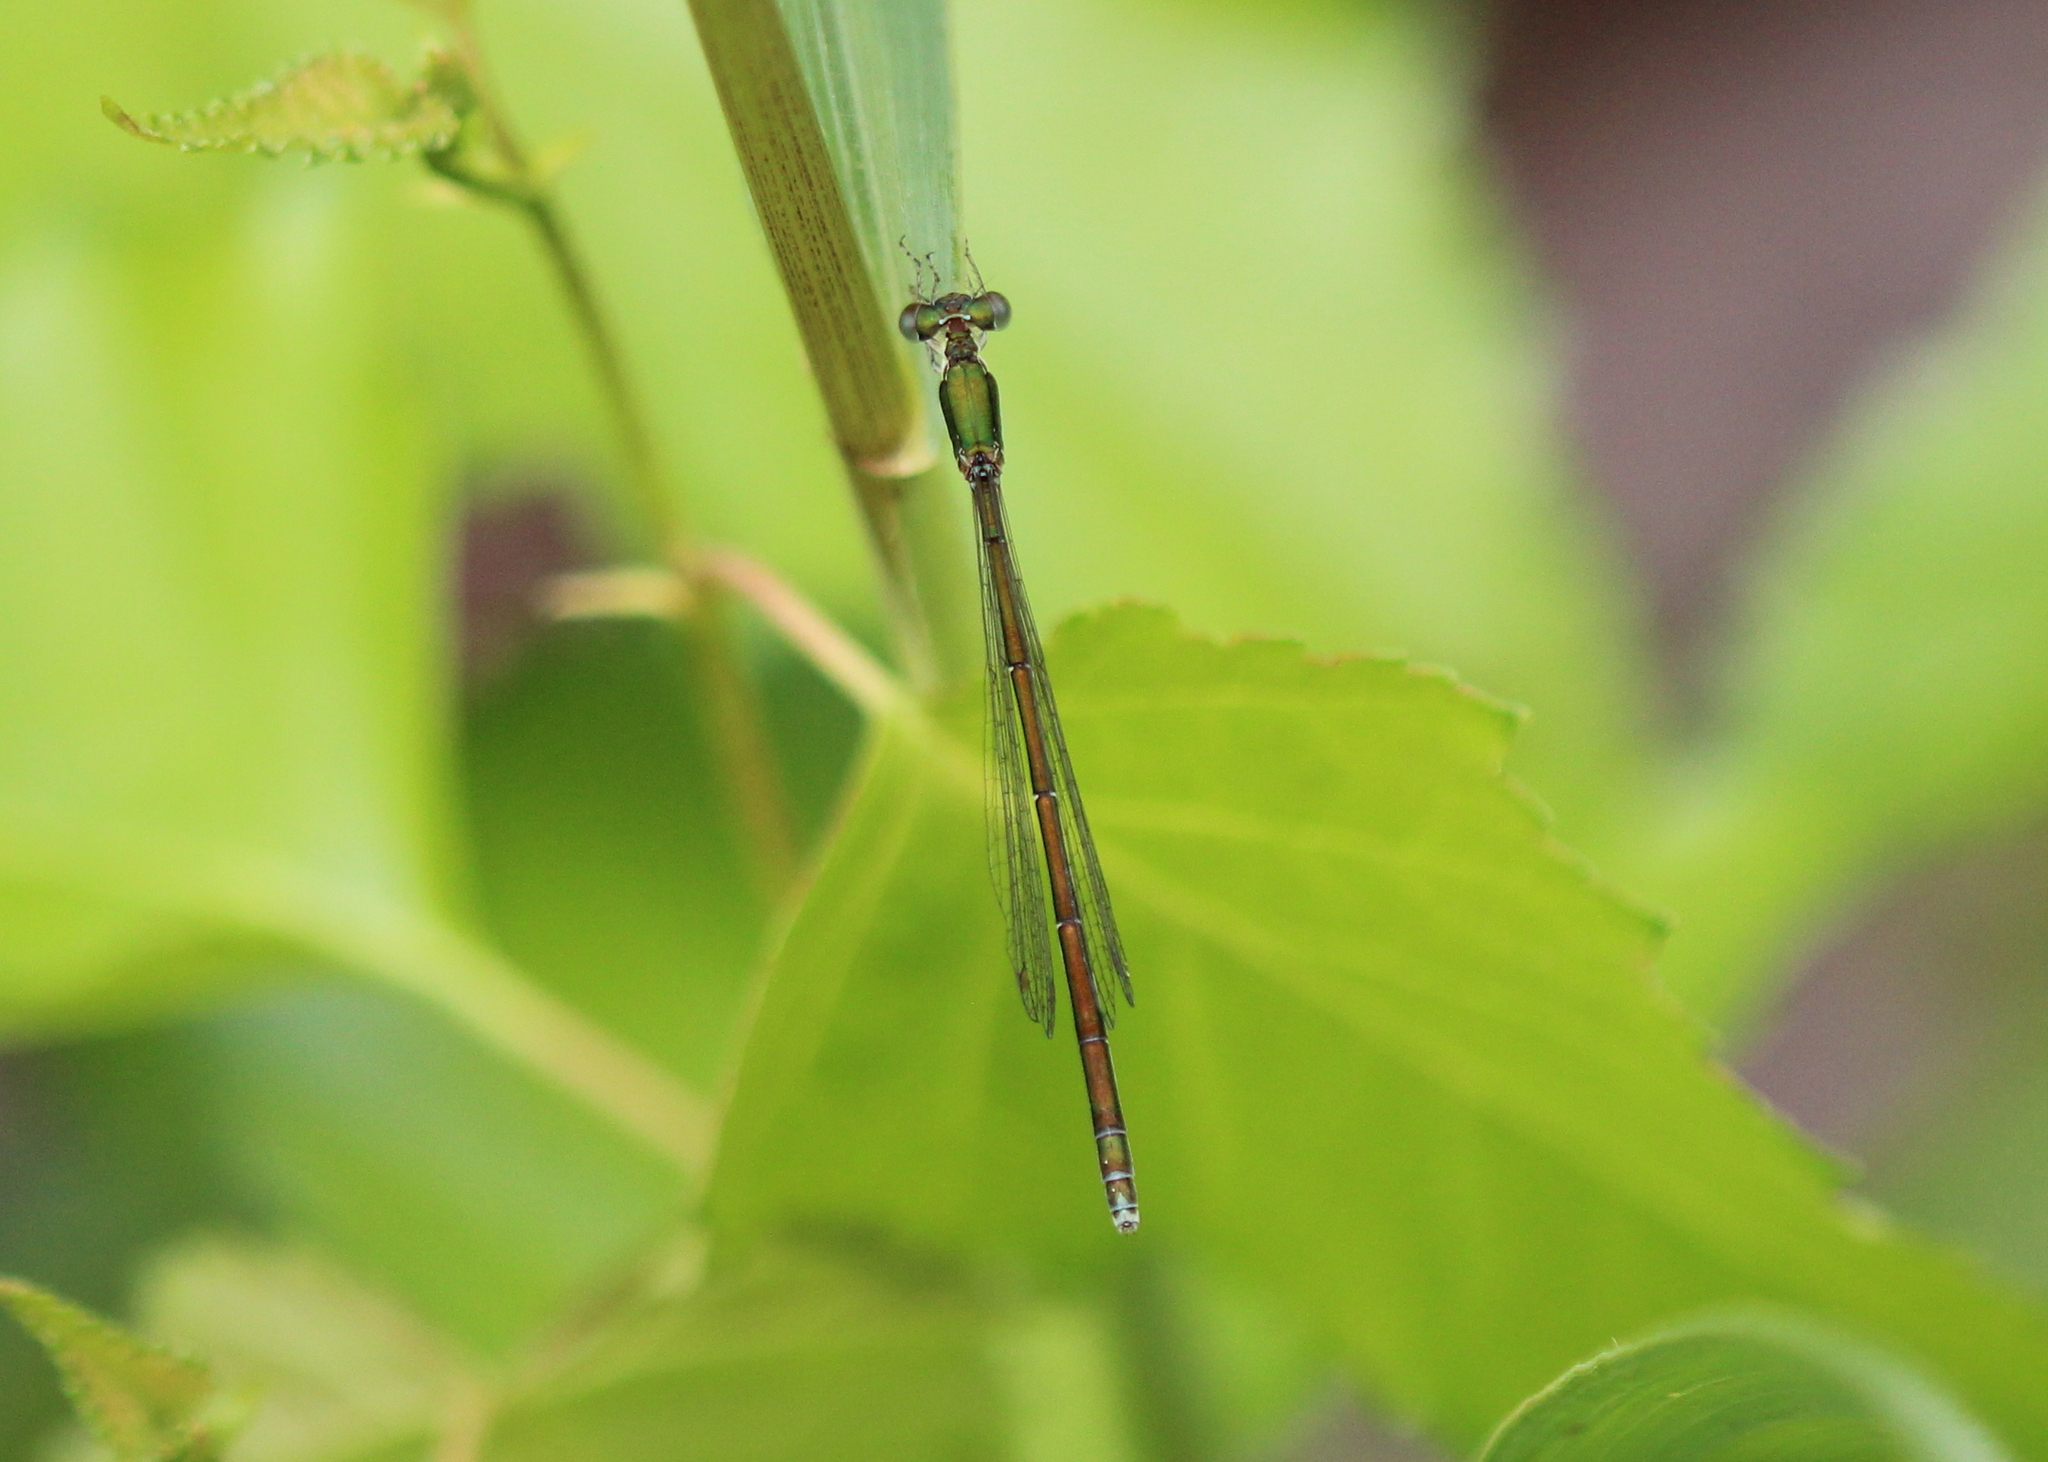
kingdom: Animalia
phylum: Arthropoda
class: Insecta
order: Odonata
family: Coenagrionidae
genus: Nehalennia
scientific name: Nehalennia irene
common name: Sedge sprite
